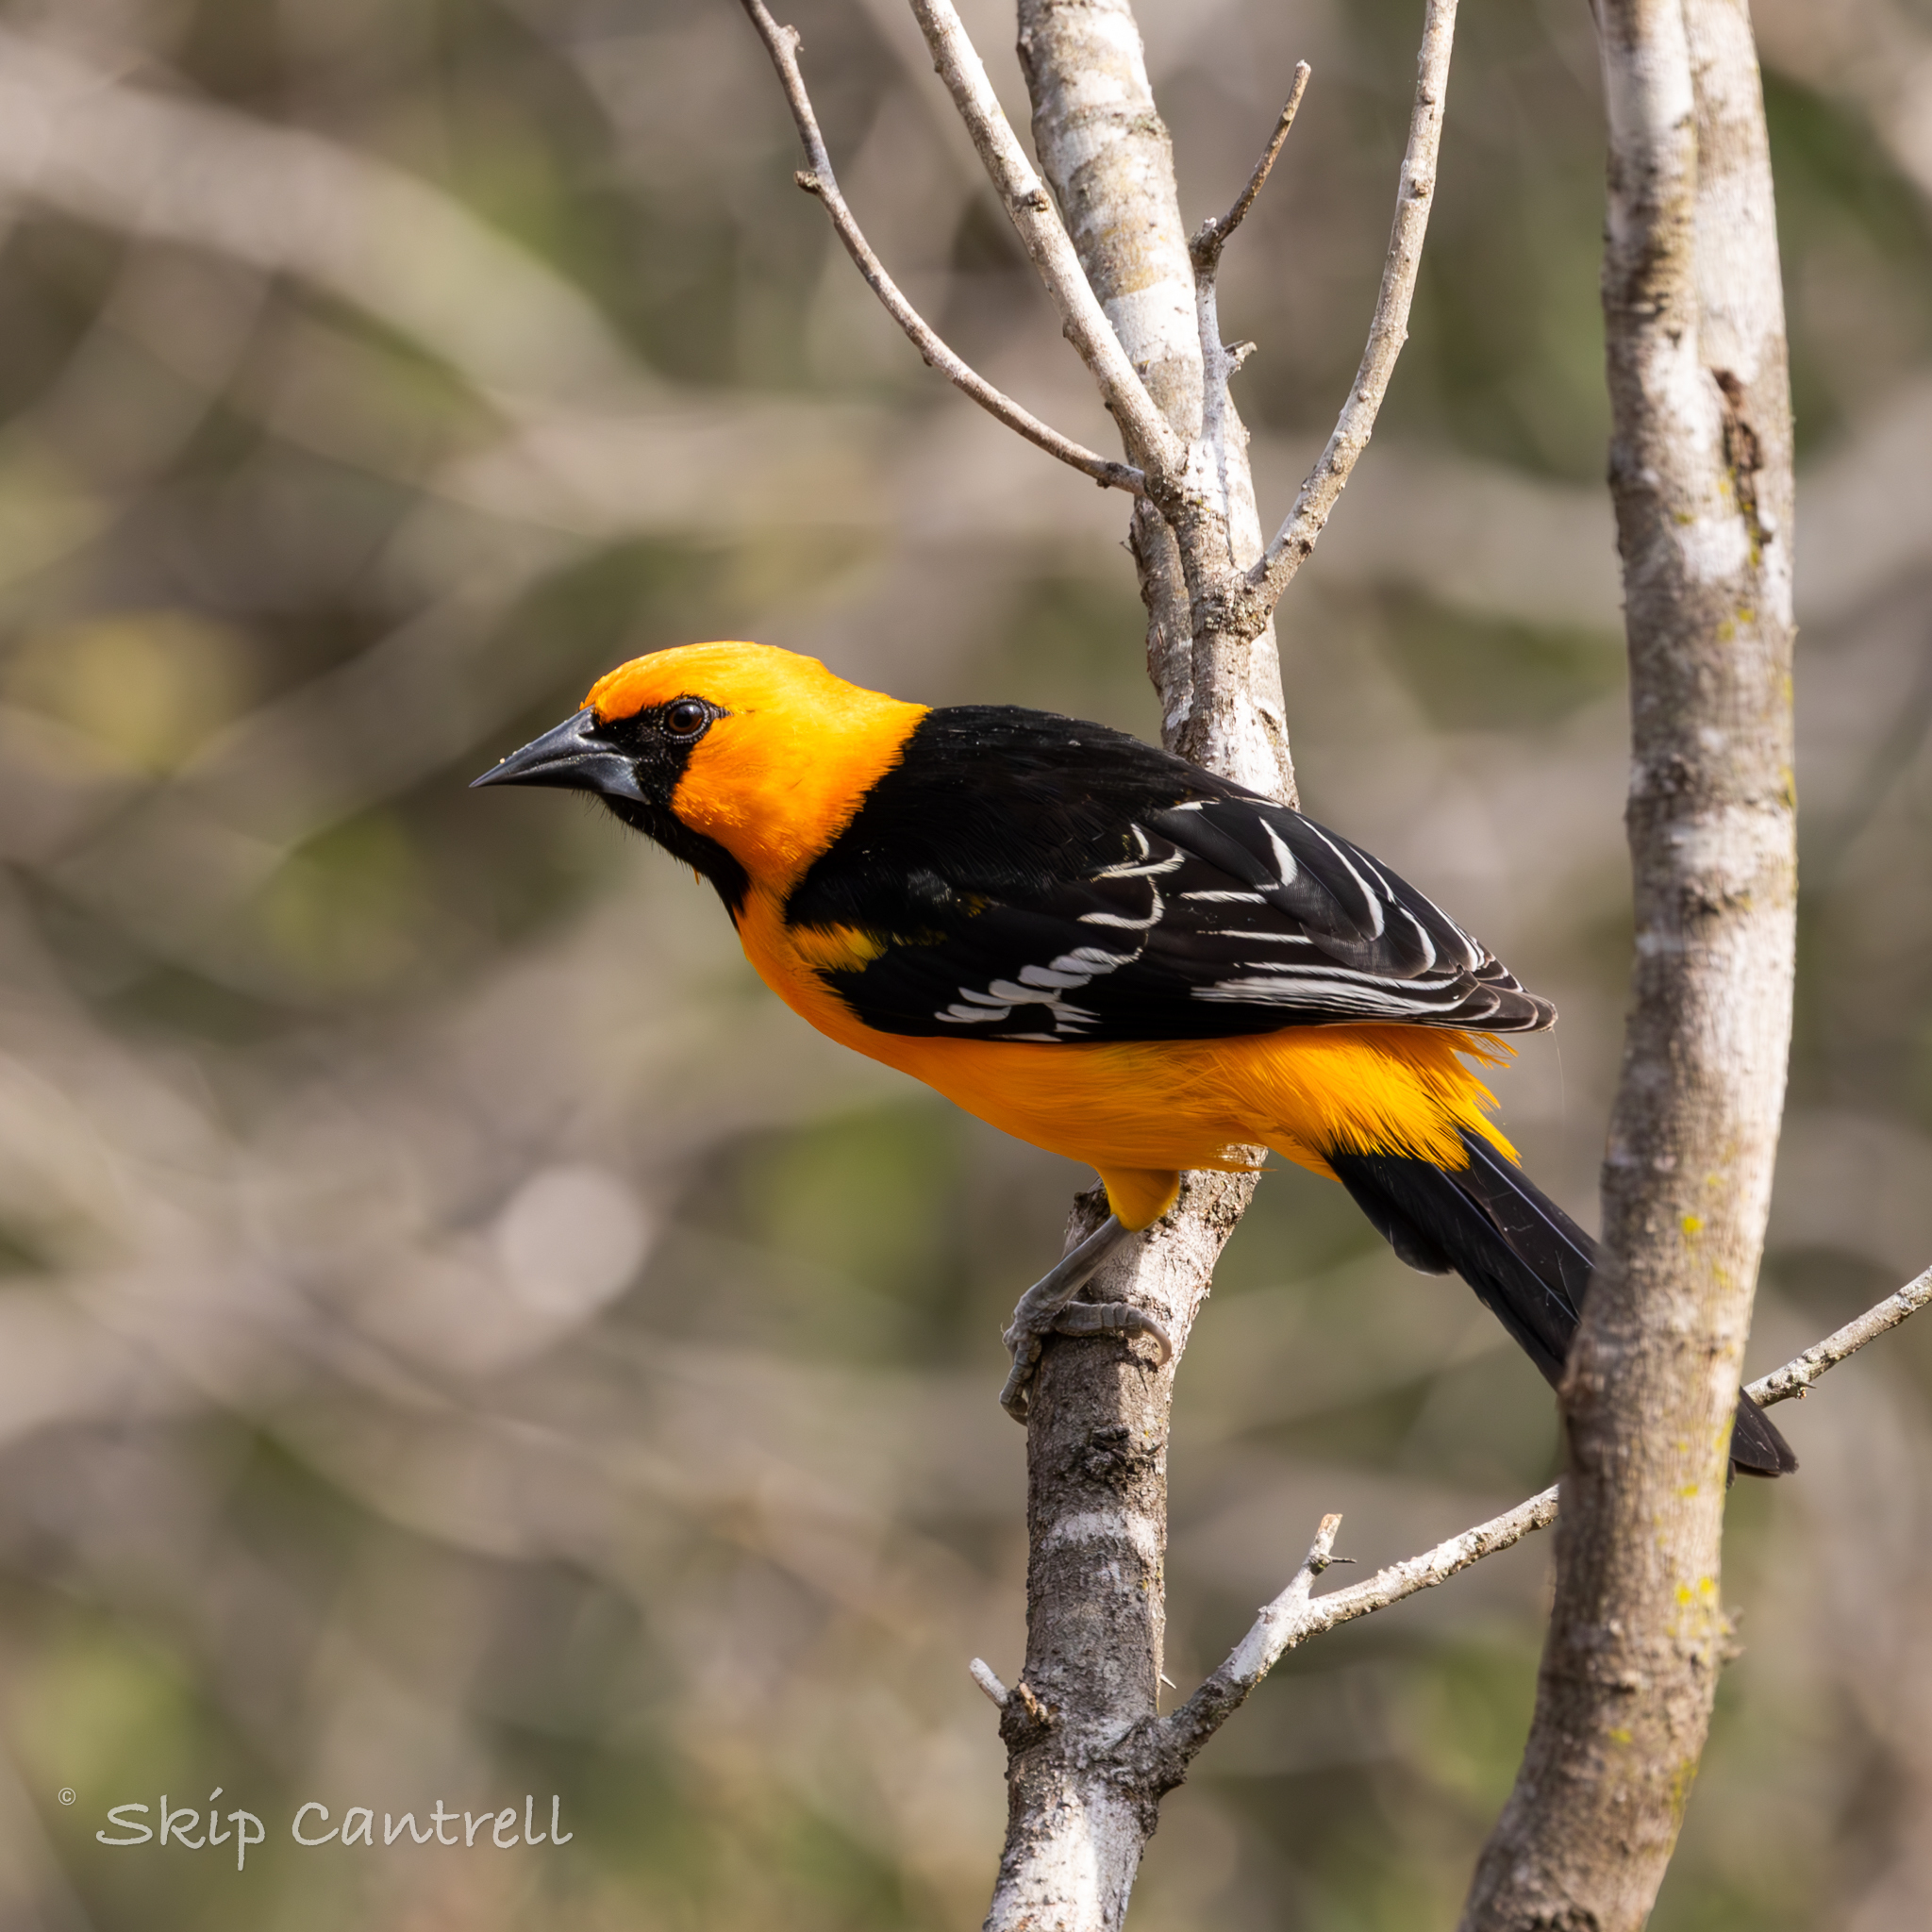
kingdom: Animalia
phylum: Chordata
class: Aves
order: Passeriformes
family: Icteridae
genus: Icterus
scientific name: Icterus gularis
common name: Altamira oriole
